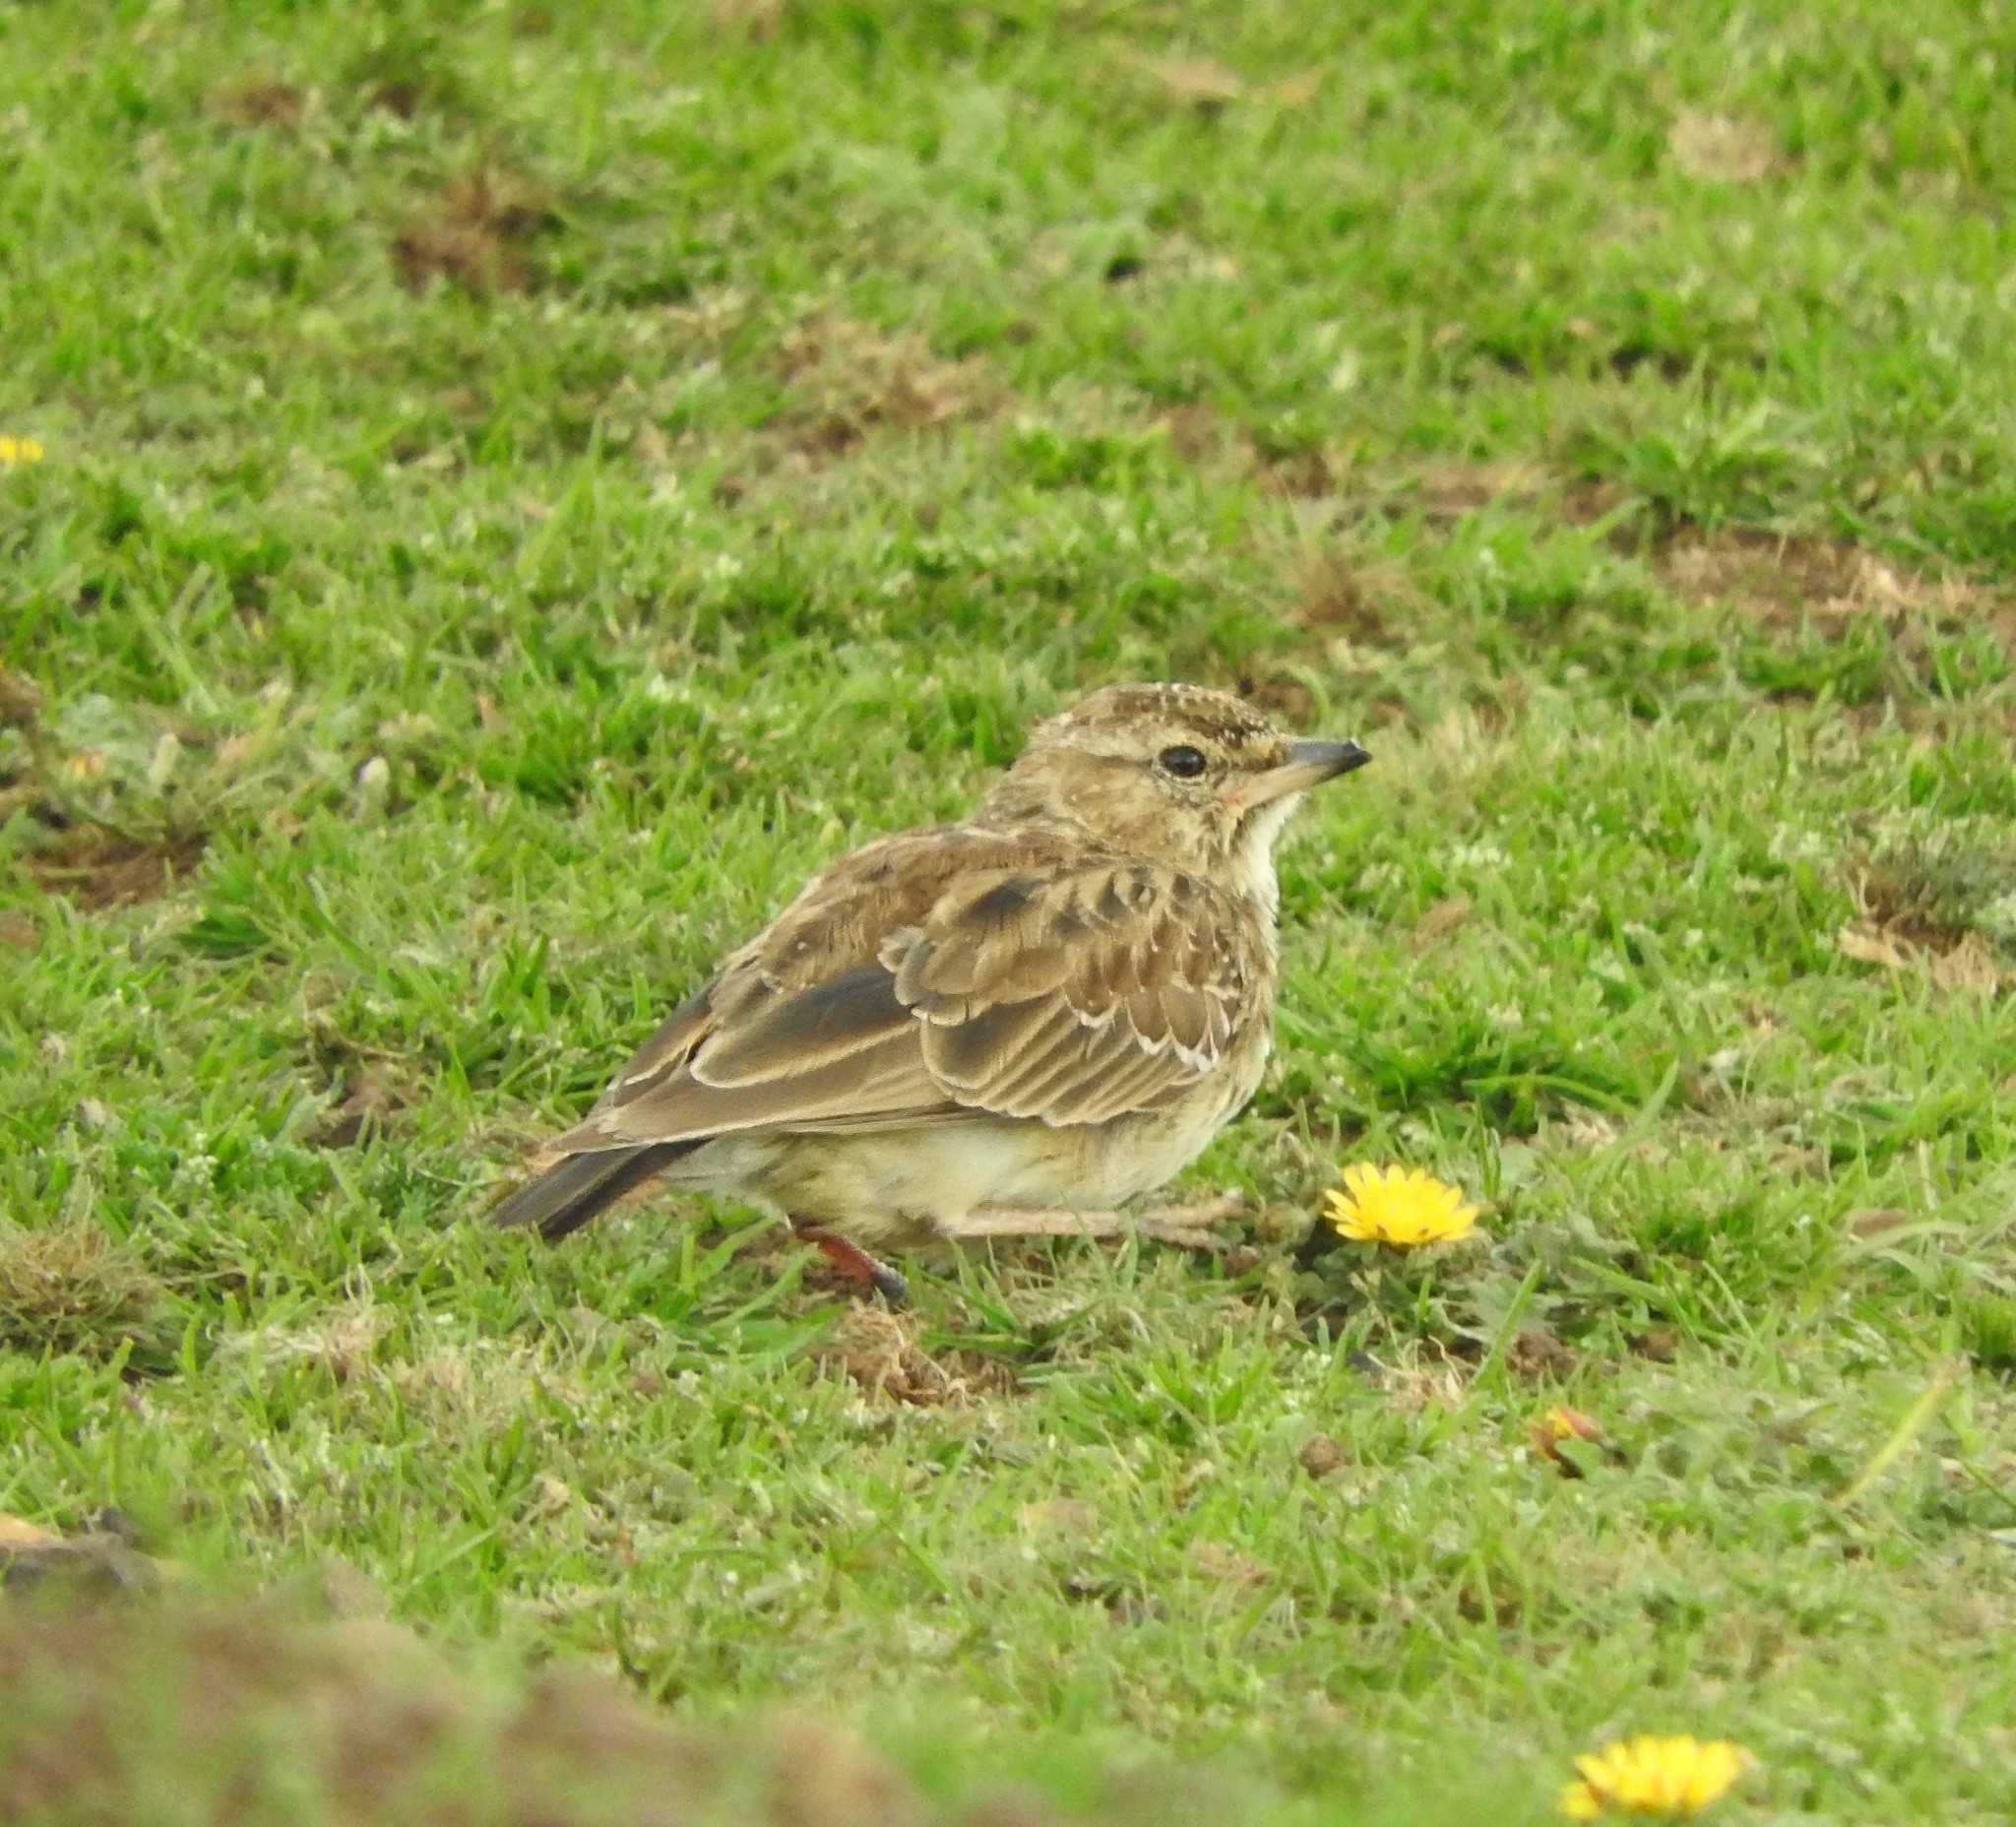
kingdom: Animalia
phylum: Chordata
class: Aves
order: Passeriformes
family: Alaudidae
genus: Galerida
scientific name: Galerida magnirostris
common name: Large-billed lark
